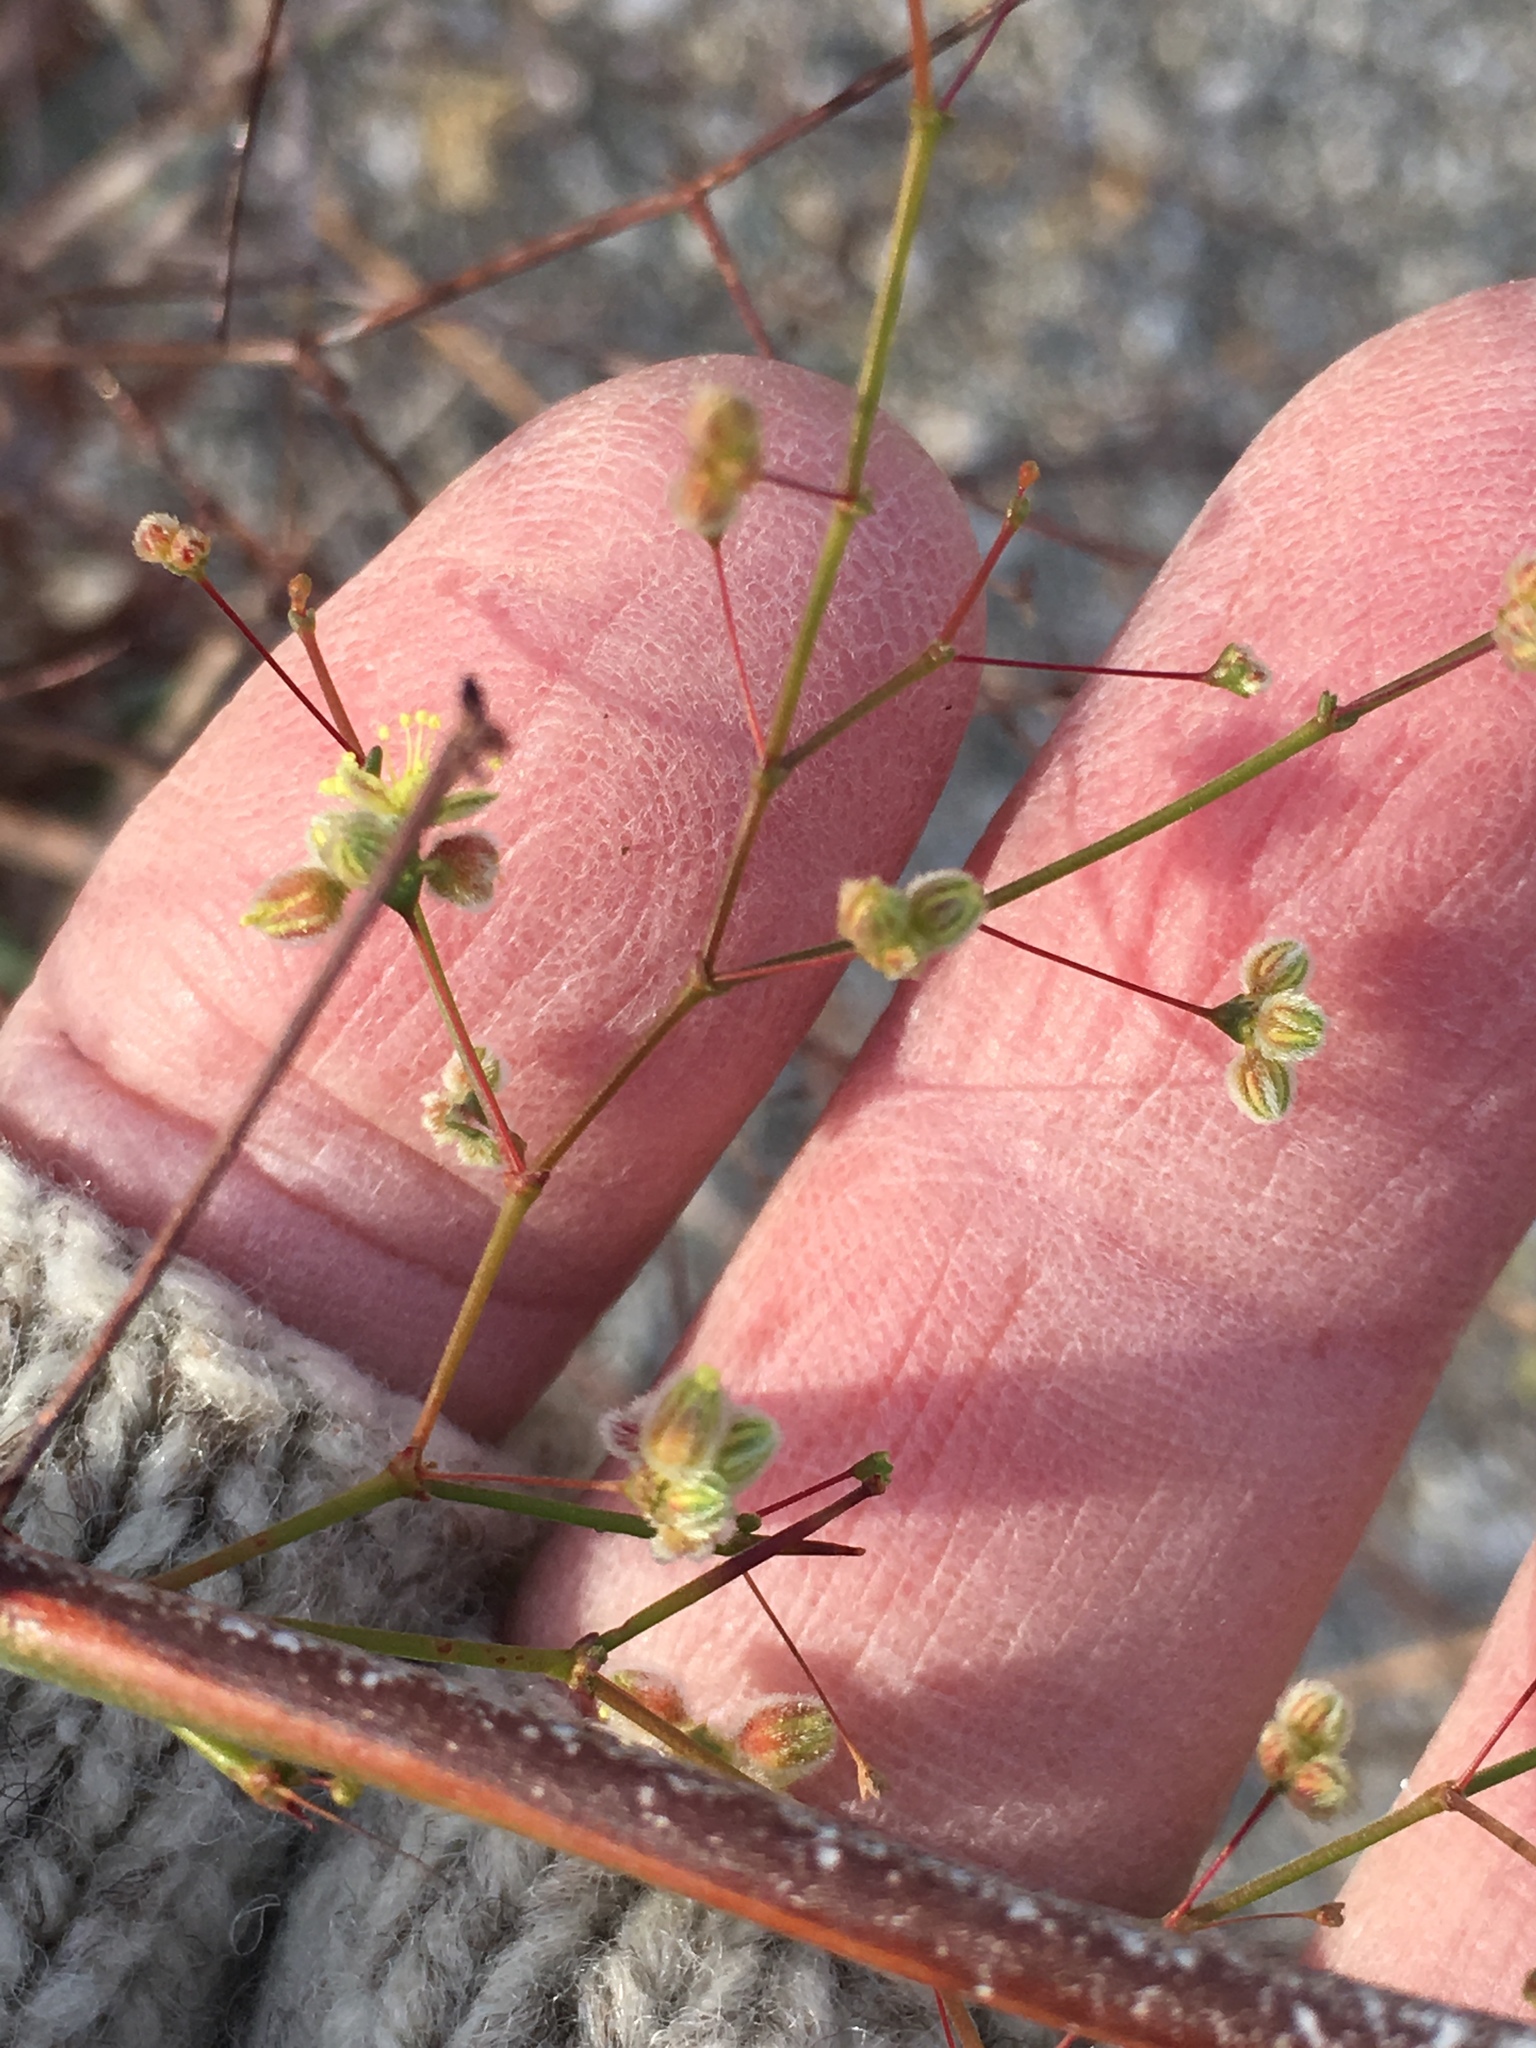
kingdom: Plantae
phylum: Tracheophyta
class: Magnoliopsida
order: Caryophyllales
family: Polygonaceae
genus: Eriogonum
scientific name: Eriogonum inflatum
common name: Desert trumpet
